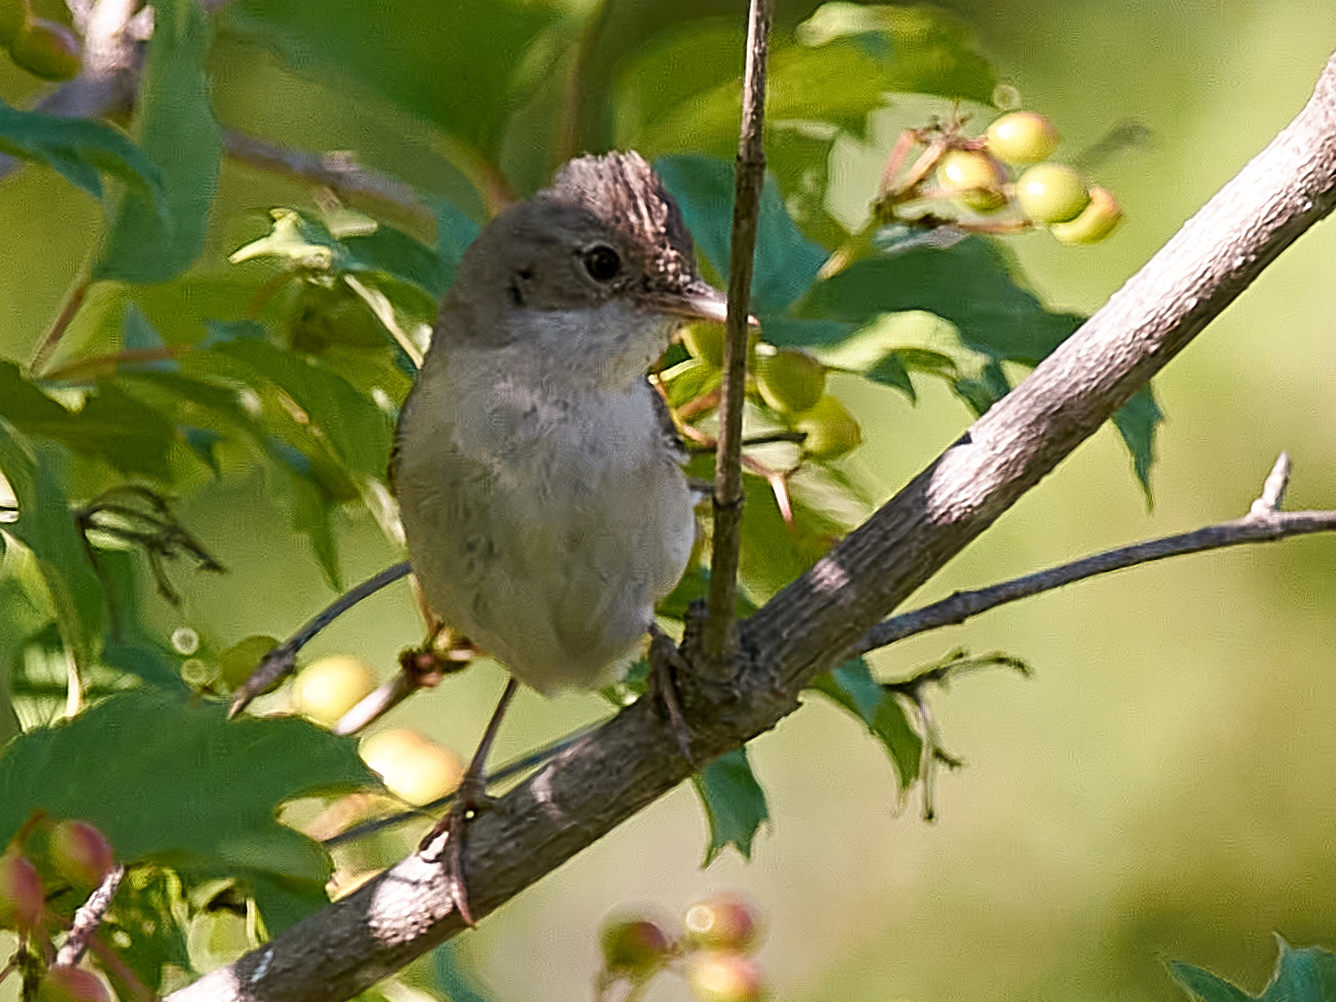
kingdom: Animalia
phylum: Chordata
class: Aves
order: Passeriformes
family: Sylviidae
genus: Sylvia
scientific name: Sylvia communis
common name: Common whitethroat
